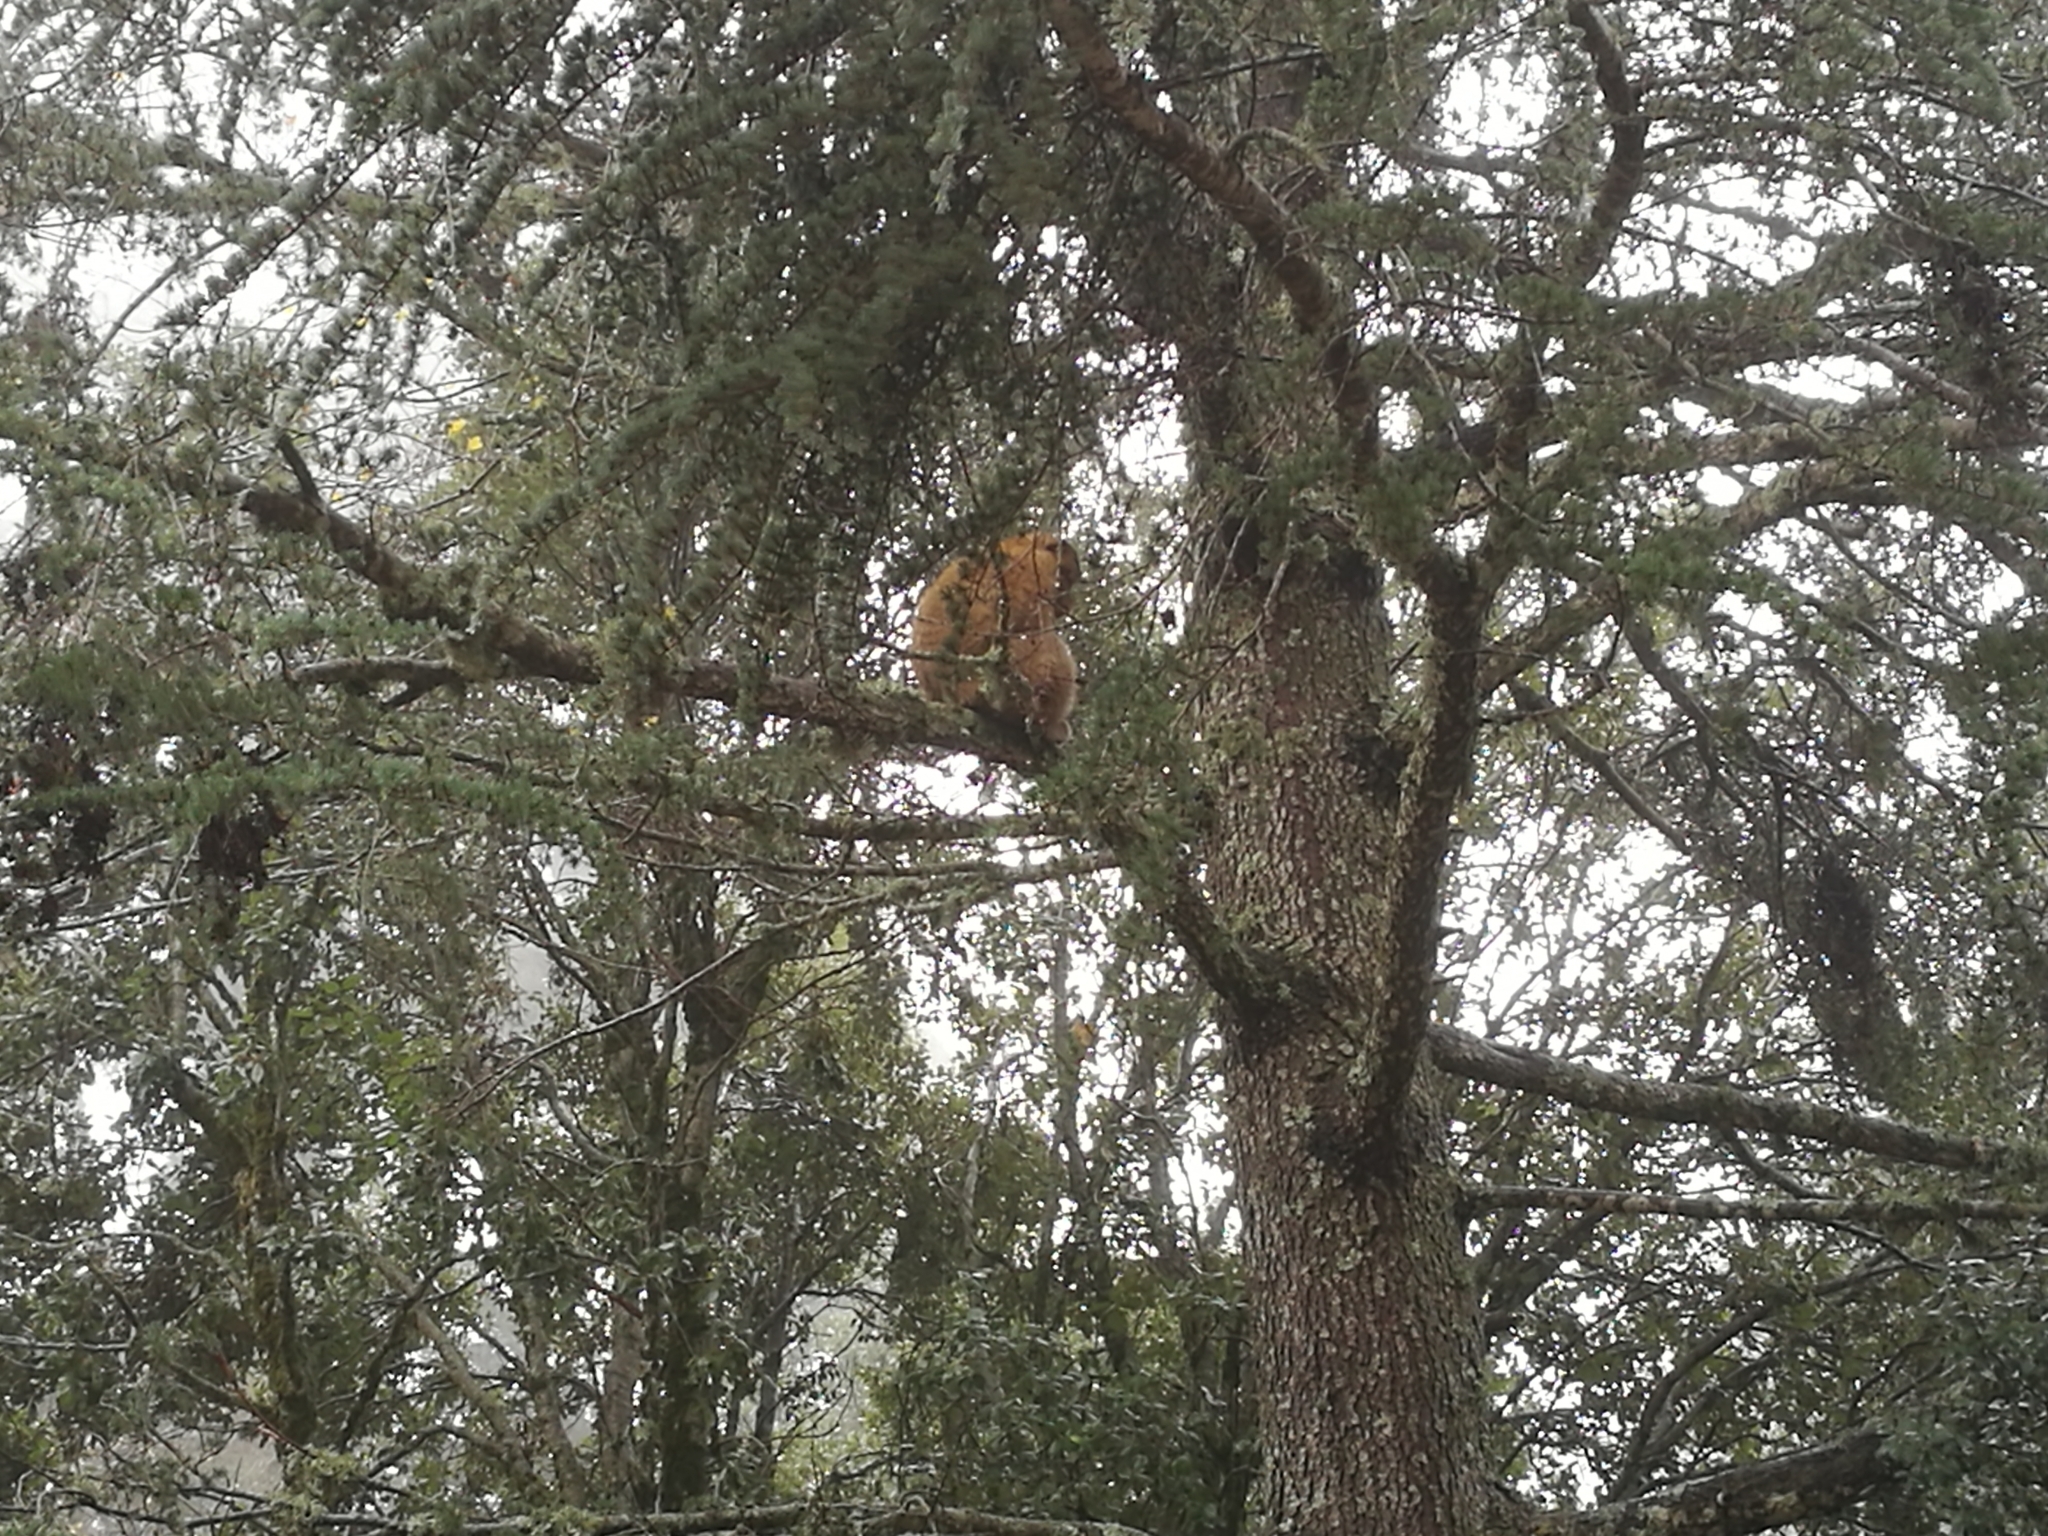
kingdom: Animalia
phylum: Chordata
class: Mammalia
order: Primates
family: Cercopithecidae
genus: Macaca
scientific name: Macaca sylvanus
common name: Barbary macaque
